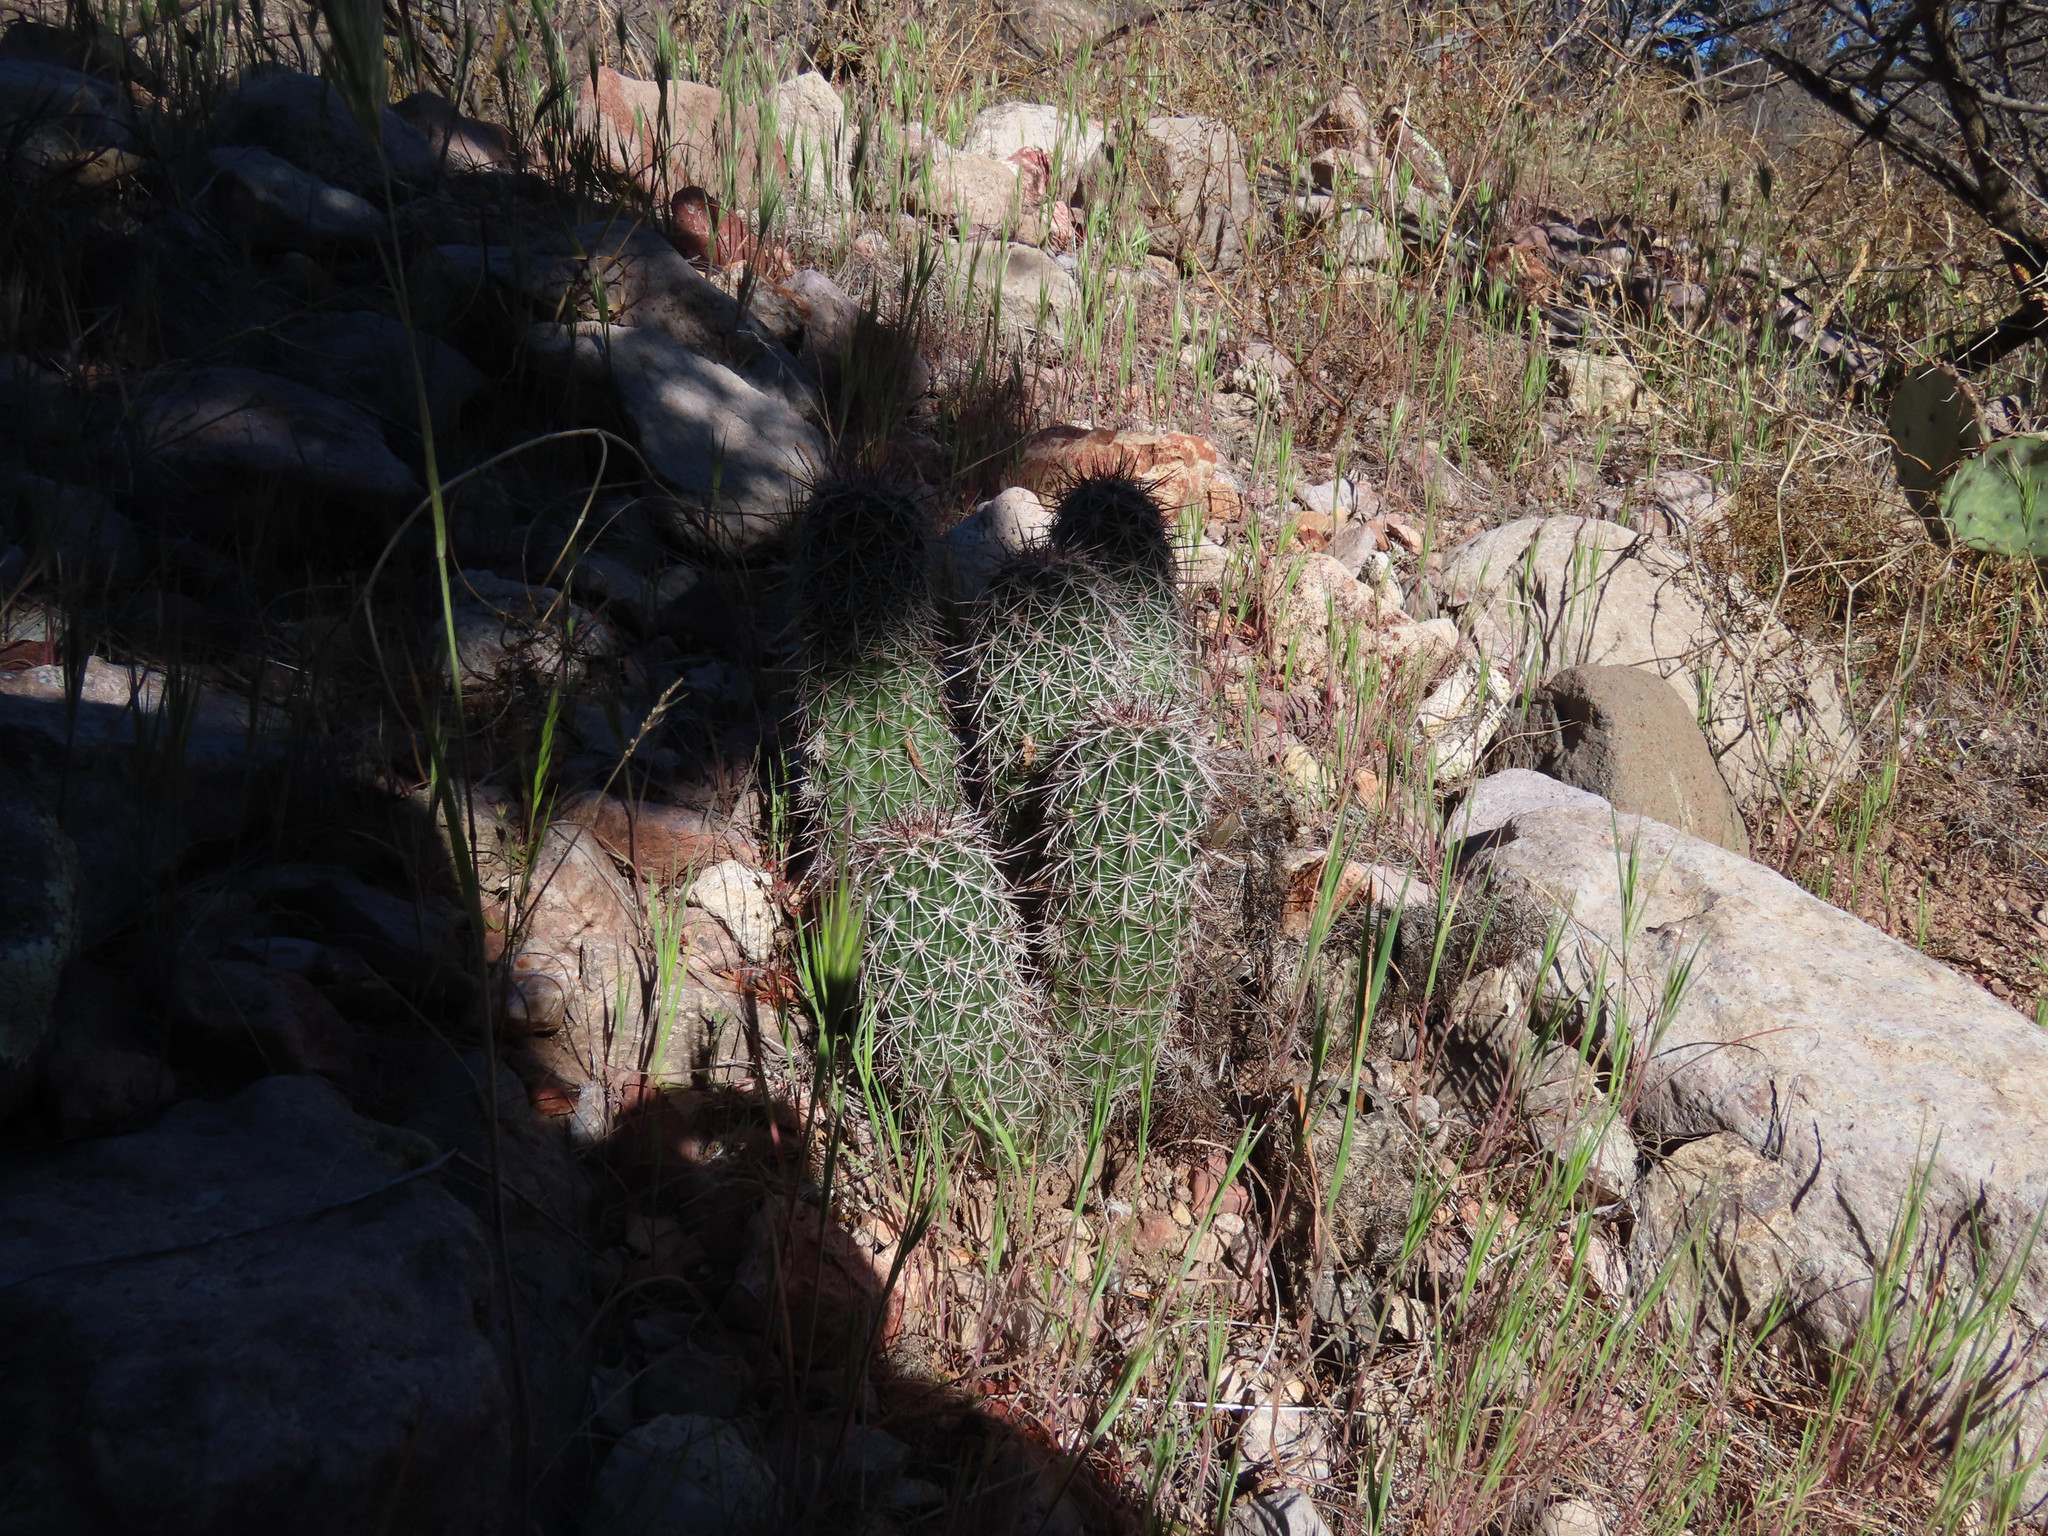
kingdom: Plantae
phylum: Tracheophyta
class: Magnoliopsida
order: Caryophyllales
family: Cactaceae
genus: Echinocereus
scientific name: Echinocereus fasciculatus
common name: Bundle hedgehog
